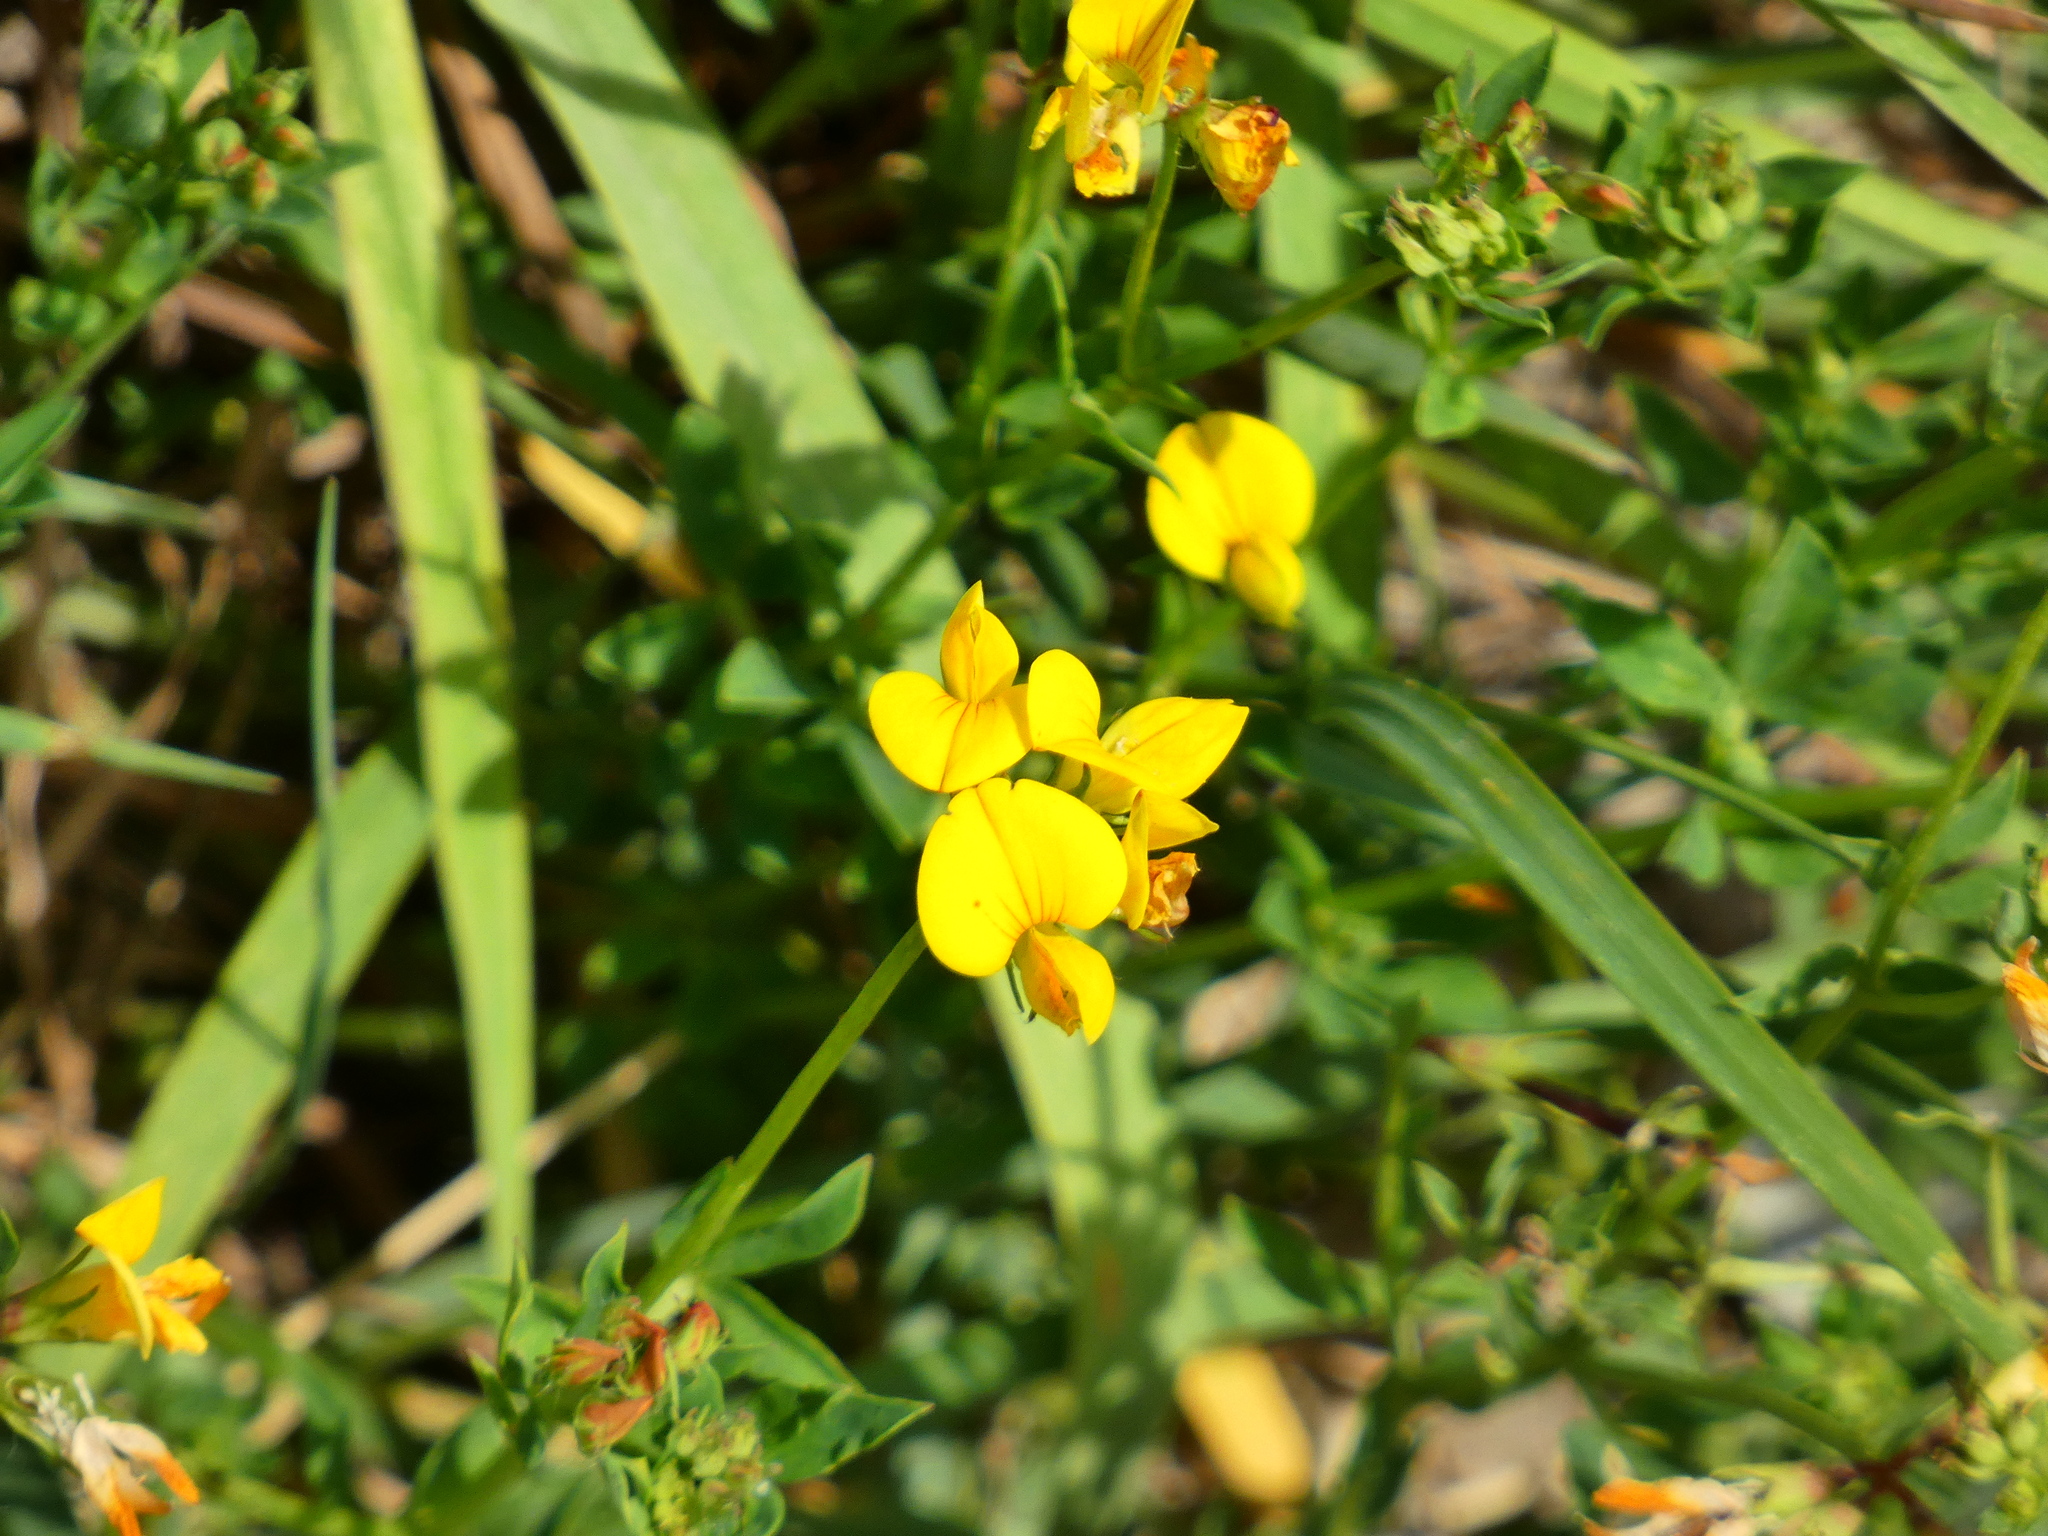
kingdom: Plantae
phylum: Tracheophyta
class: Magnoliopsida
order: Fabales
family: Fabaceae
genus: Lotus
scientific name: Lotus corniculatus
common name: Common bird's-foot-trefoil
